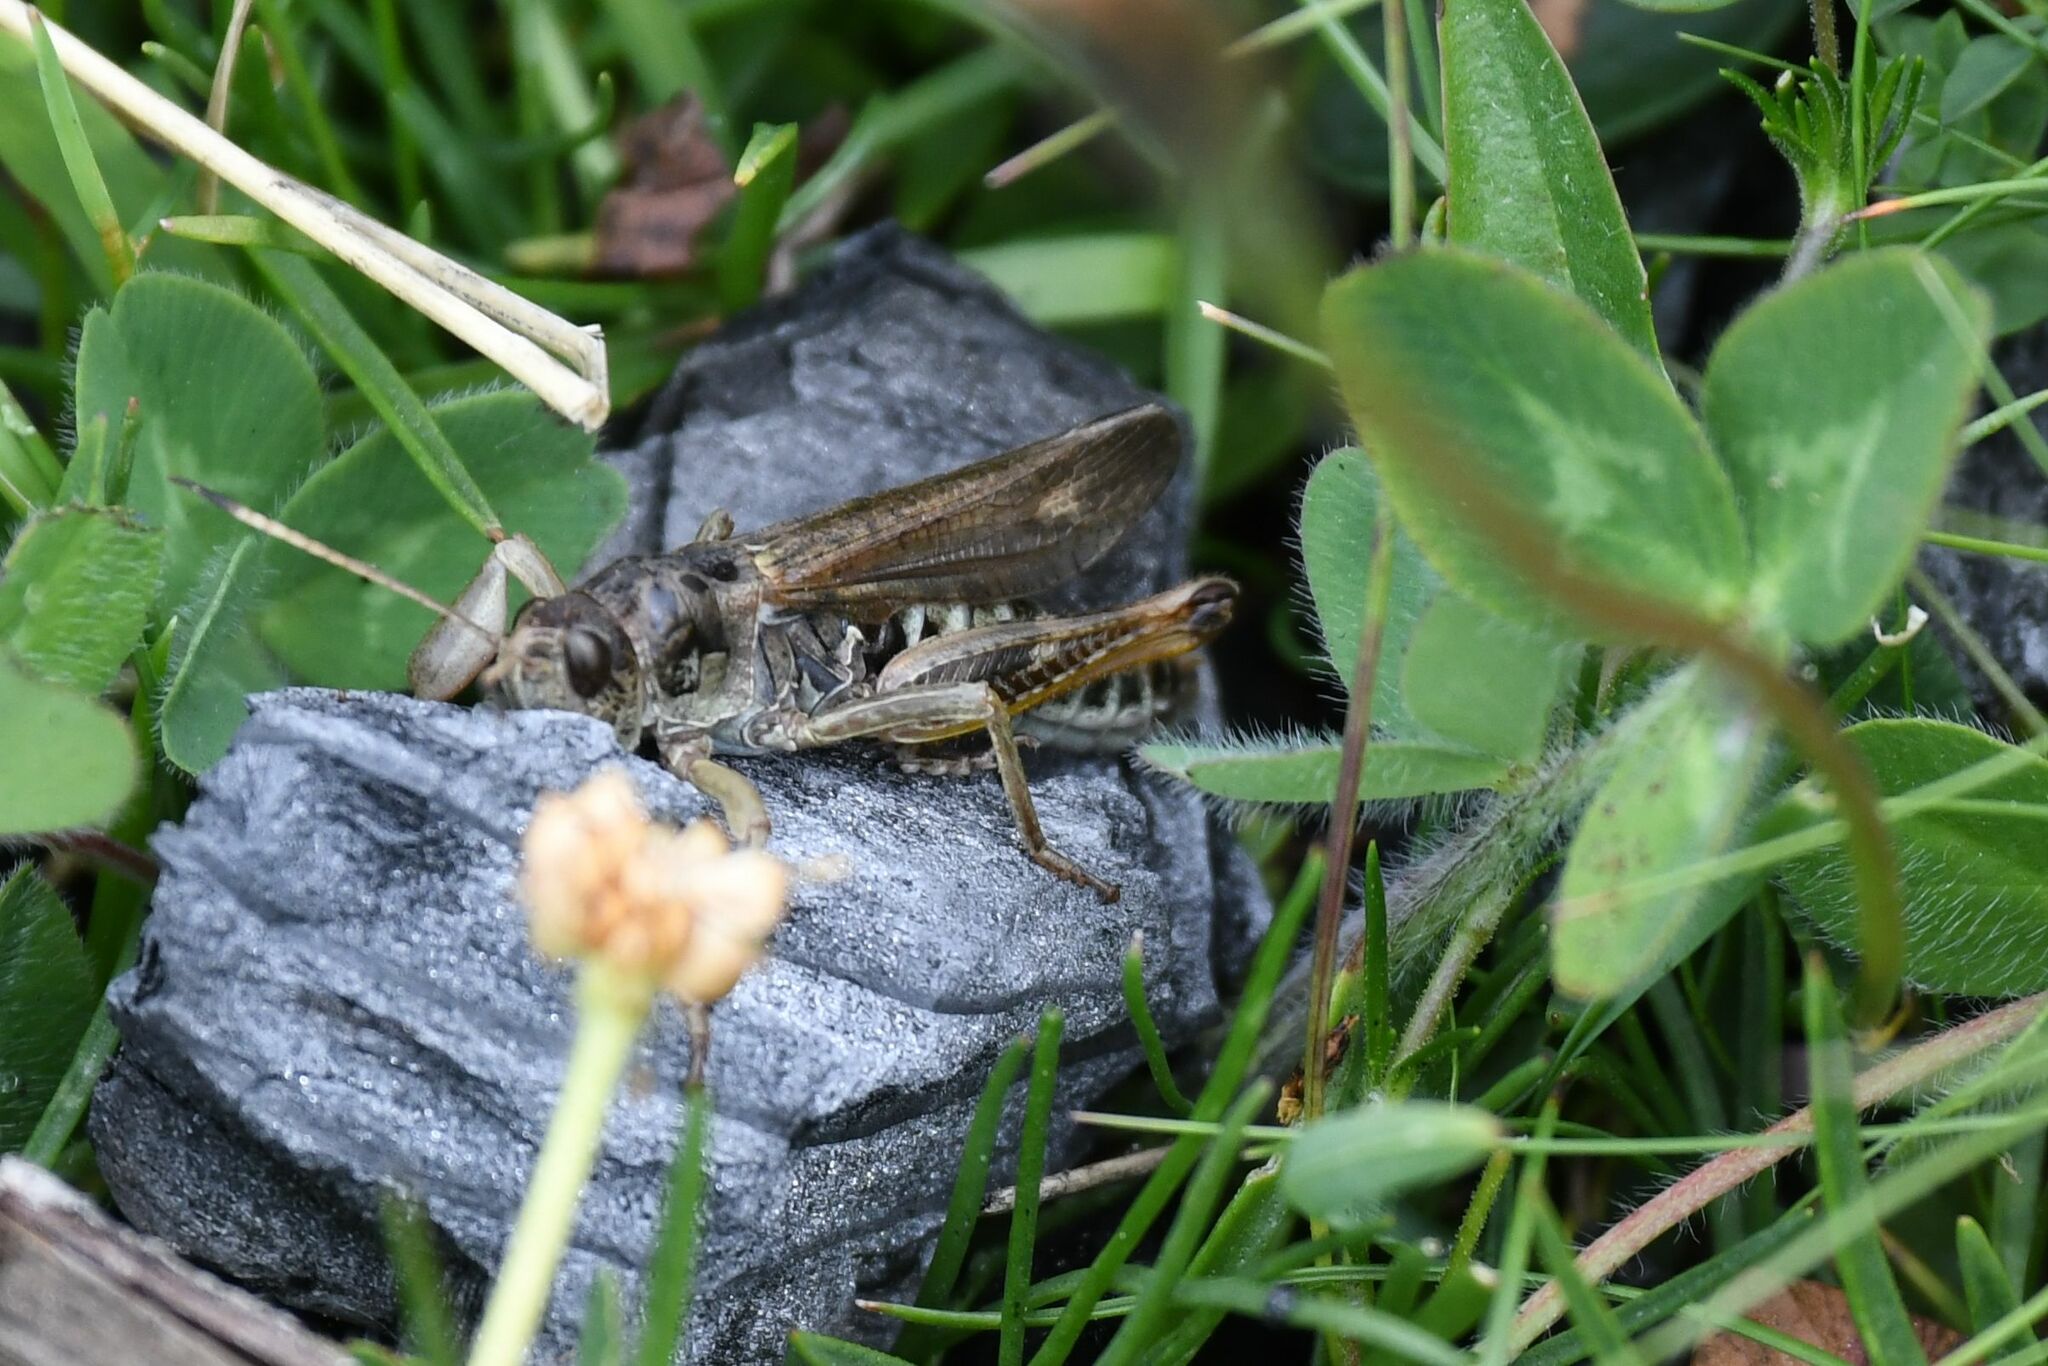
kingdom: Animalia
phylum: Arthropoda
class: Insecta
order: Orthoptera
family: Acrididae
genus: Gomphocerus
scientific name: Gomphocerus sibiricus
